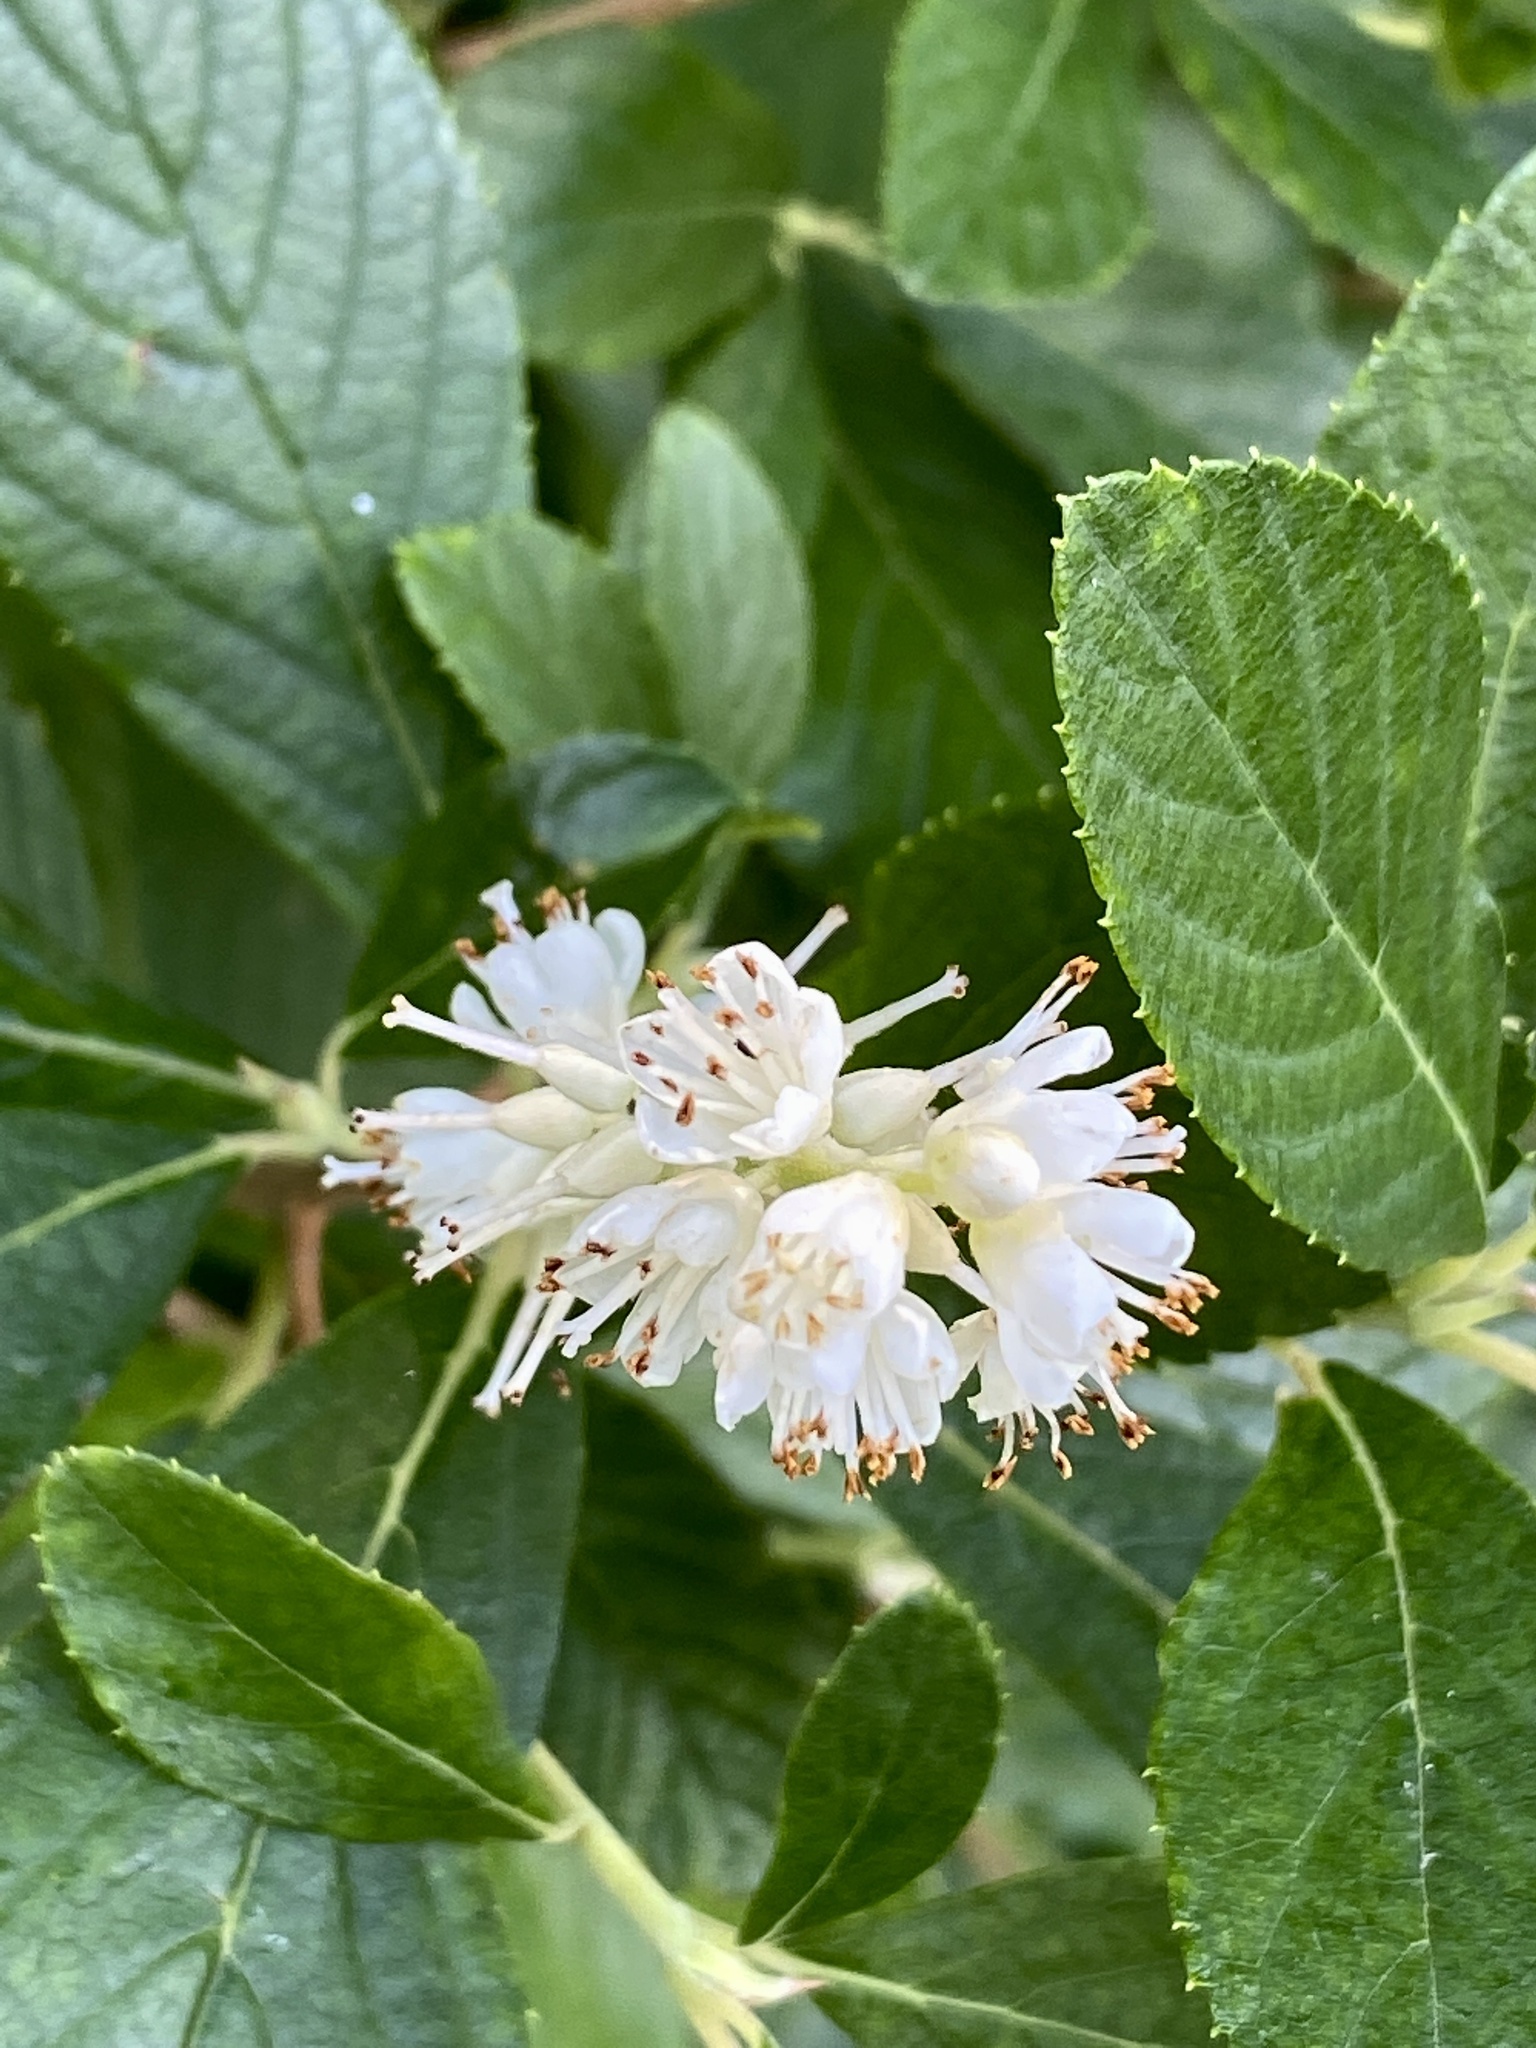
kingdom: Plantae
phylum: Tracheophyta
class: Magnoliopsida
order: Ericales
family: Clethraceae
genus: Clethra
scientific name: Clethra alnifolia
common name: Sweet pepperbush
